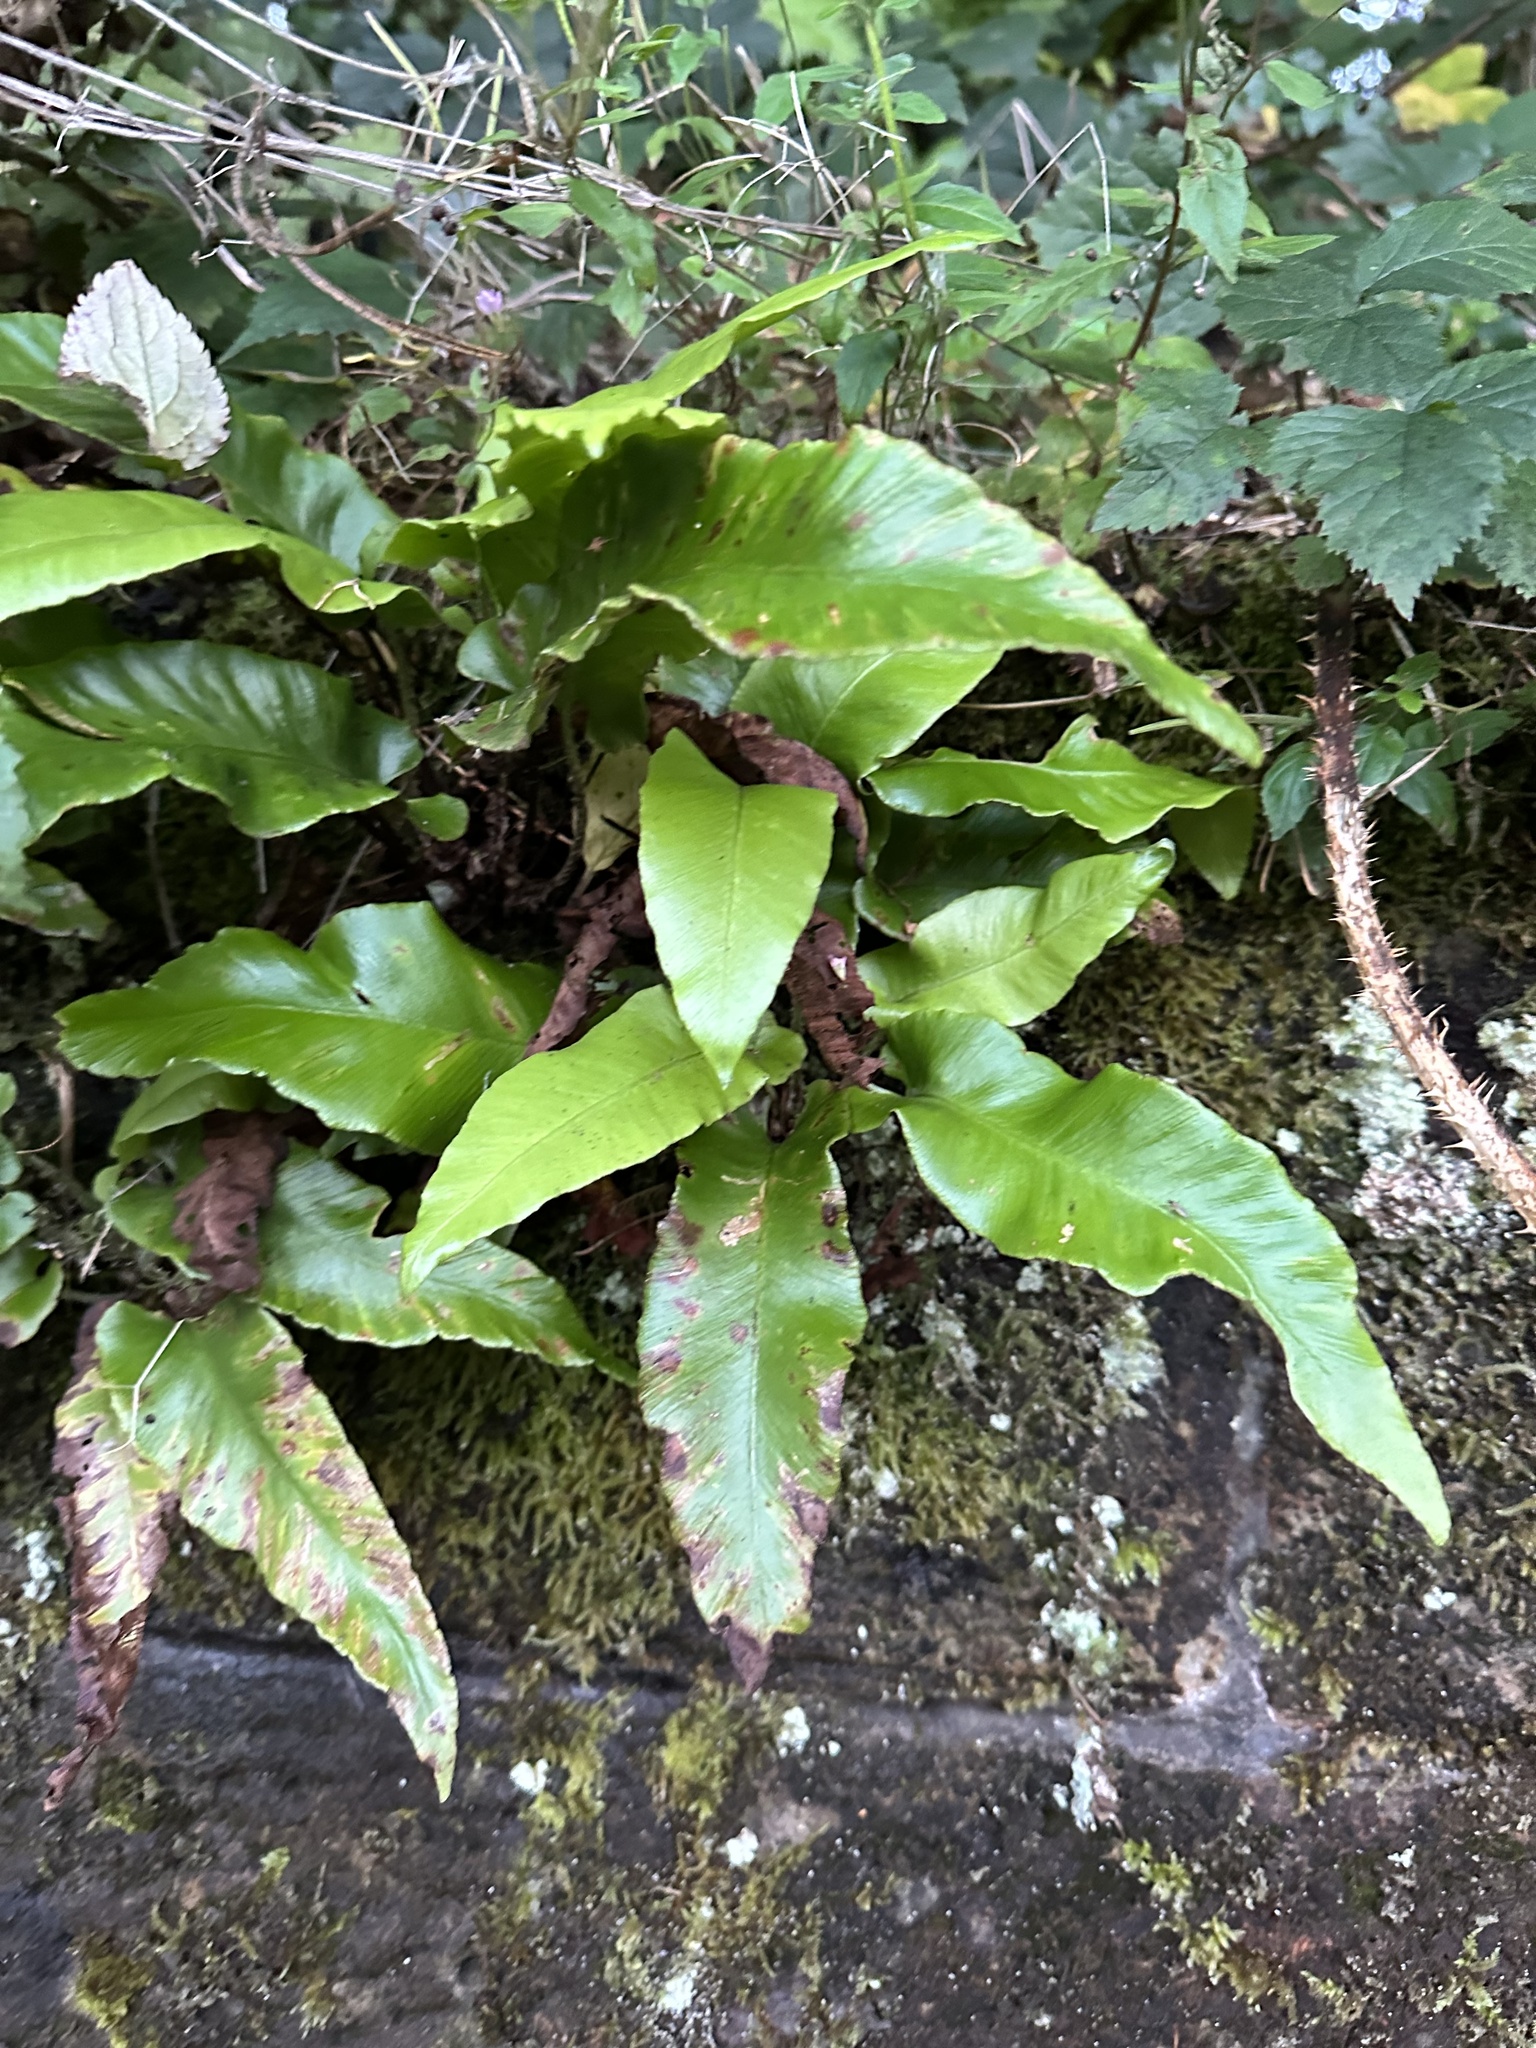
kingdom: Plantae
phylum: Tracheophyta
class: Polypodiopsida
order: Polypodiales
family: Aspleniaceae
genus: Asplenium
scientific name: Asplenium scolopendrium
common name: Hart's-tongue fern
